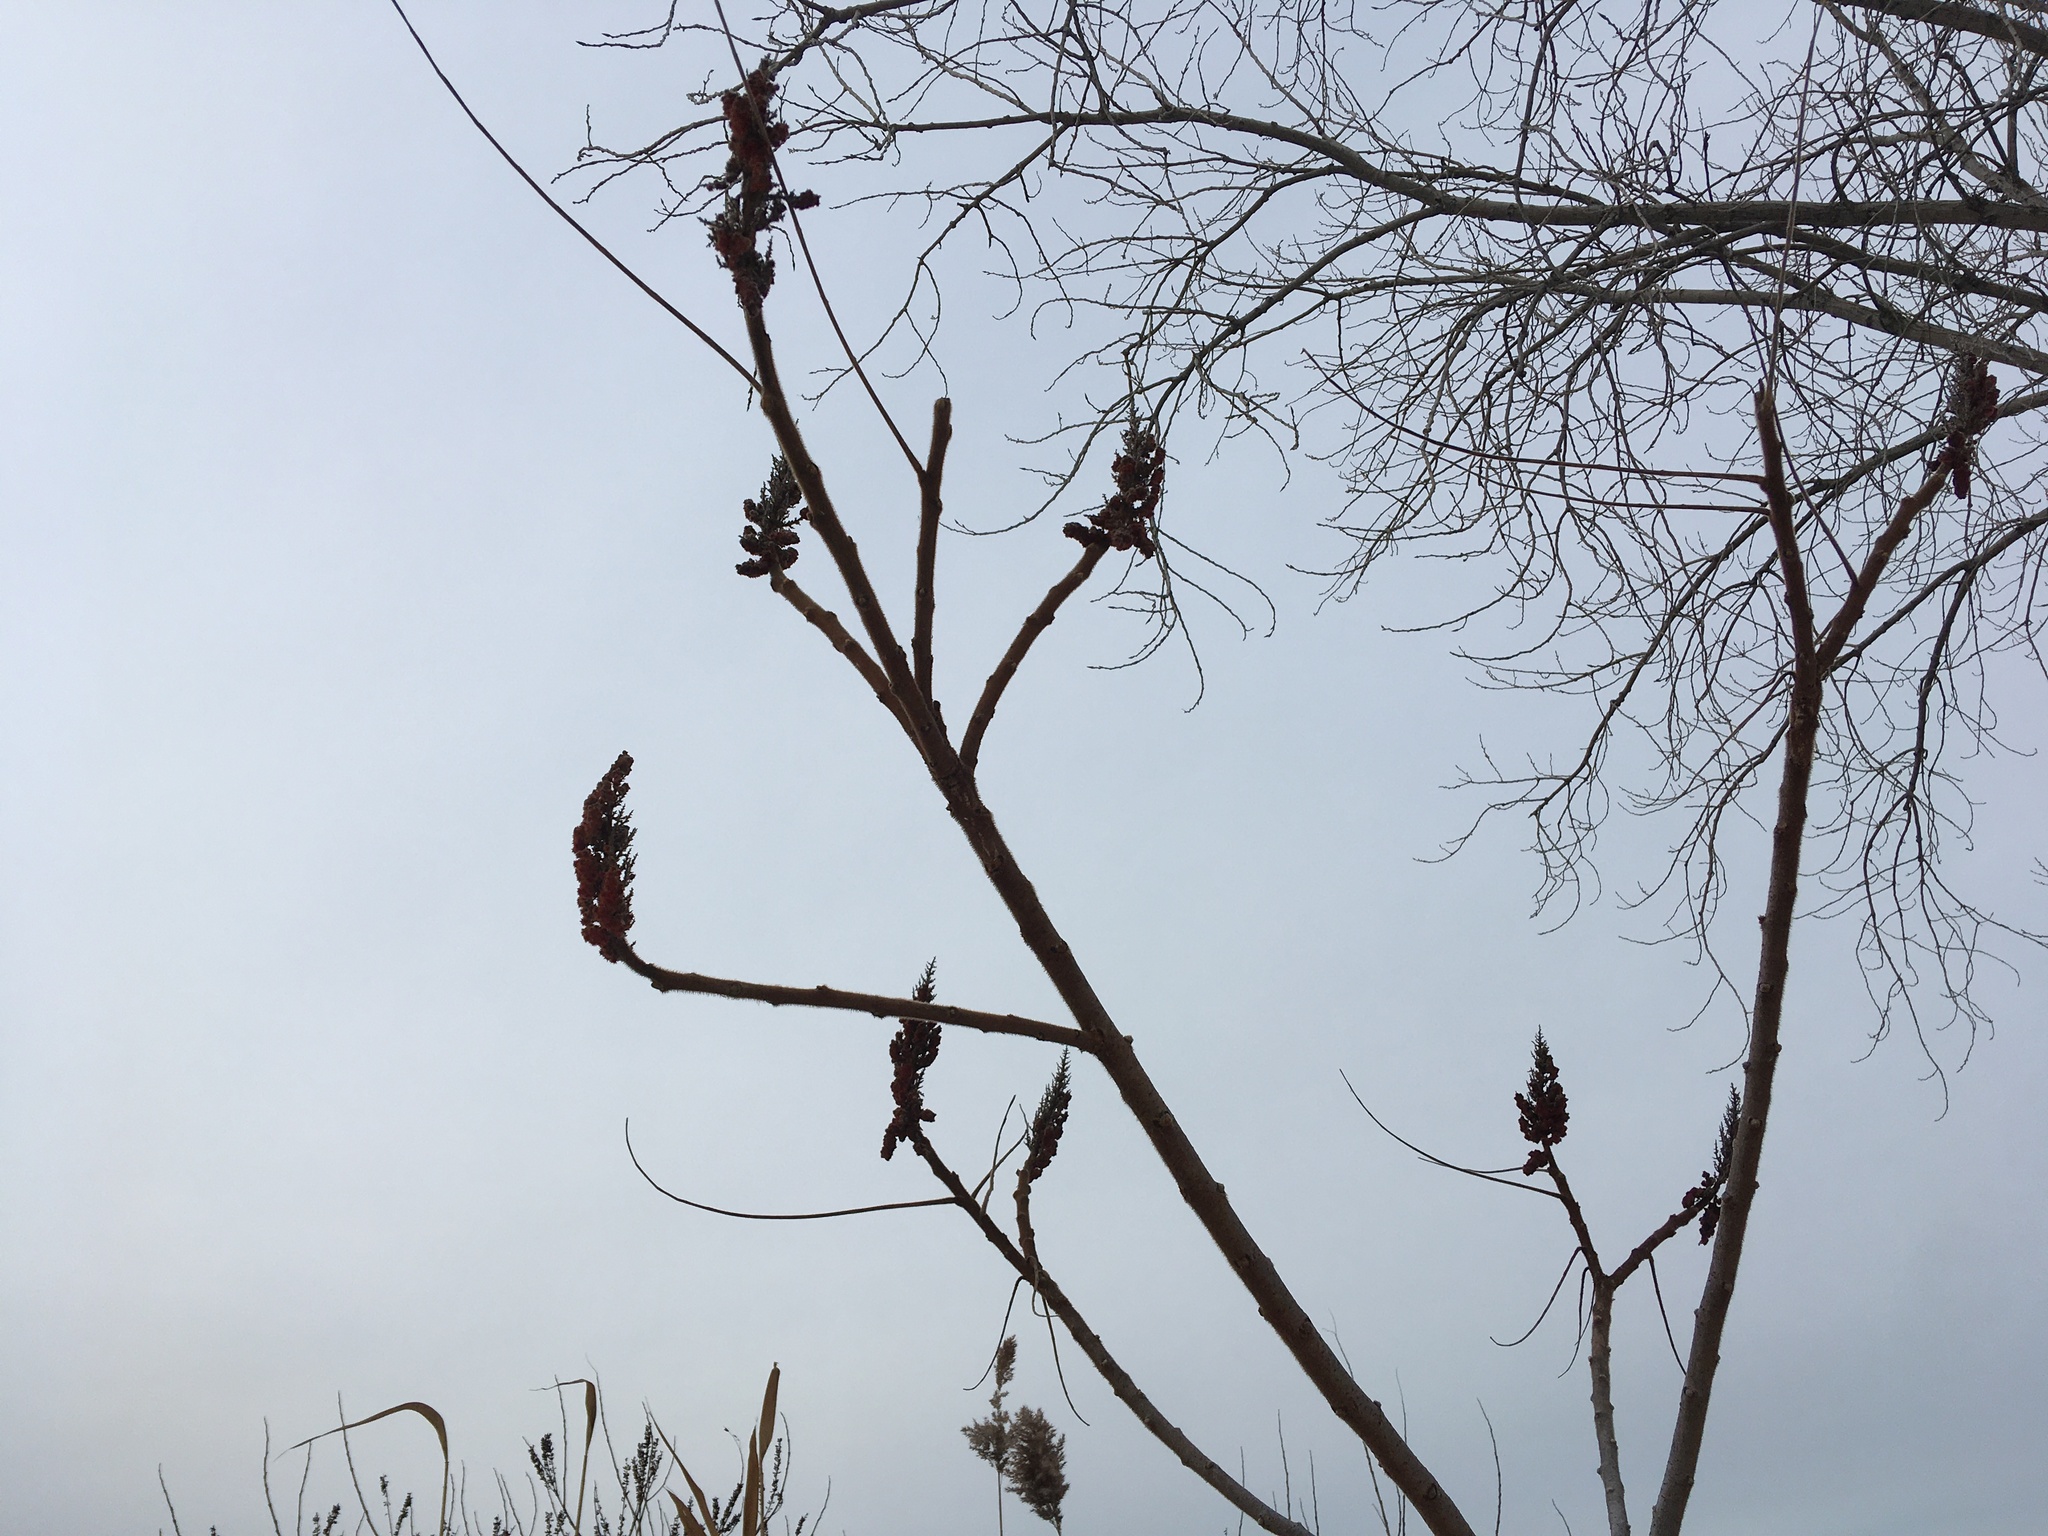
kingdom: Plantae
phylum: Tracheophyta
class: Magnoliopsida
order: Sapindales
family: Anacardiaceae
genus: Rhus
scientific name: Rhus typhina
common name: Staghorn sumac
